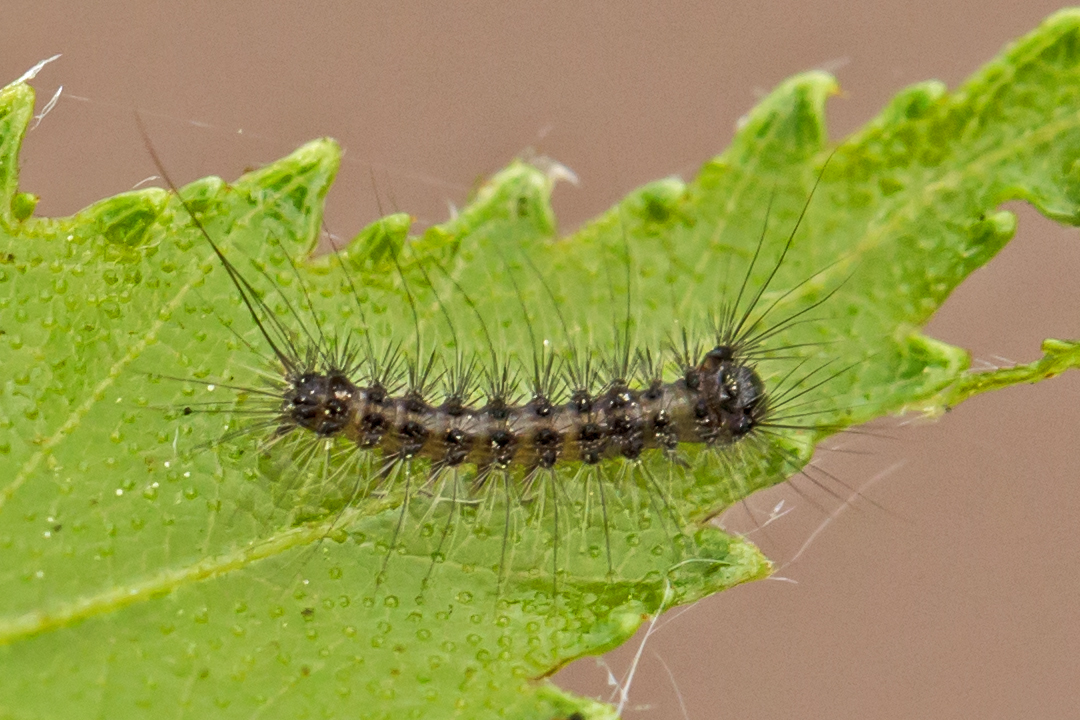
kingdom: Animalia
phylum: Arthropoda
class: Insecta
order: Lepidoptera
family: Erebidae
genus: Lymantria
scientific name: Lymantria dispar
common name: Gypsy moth
